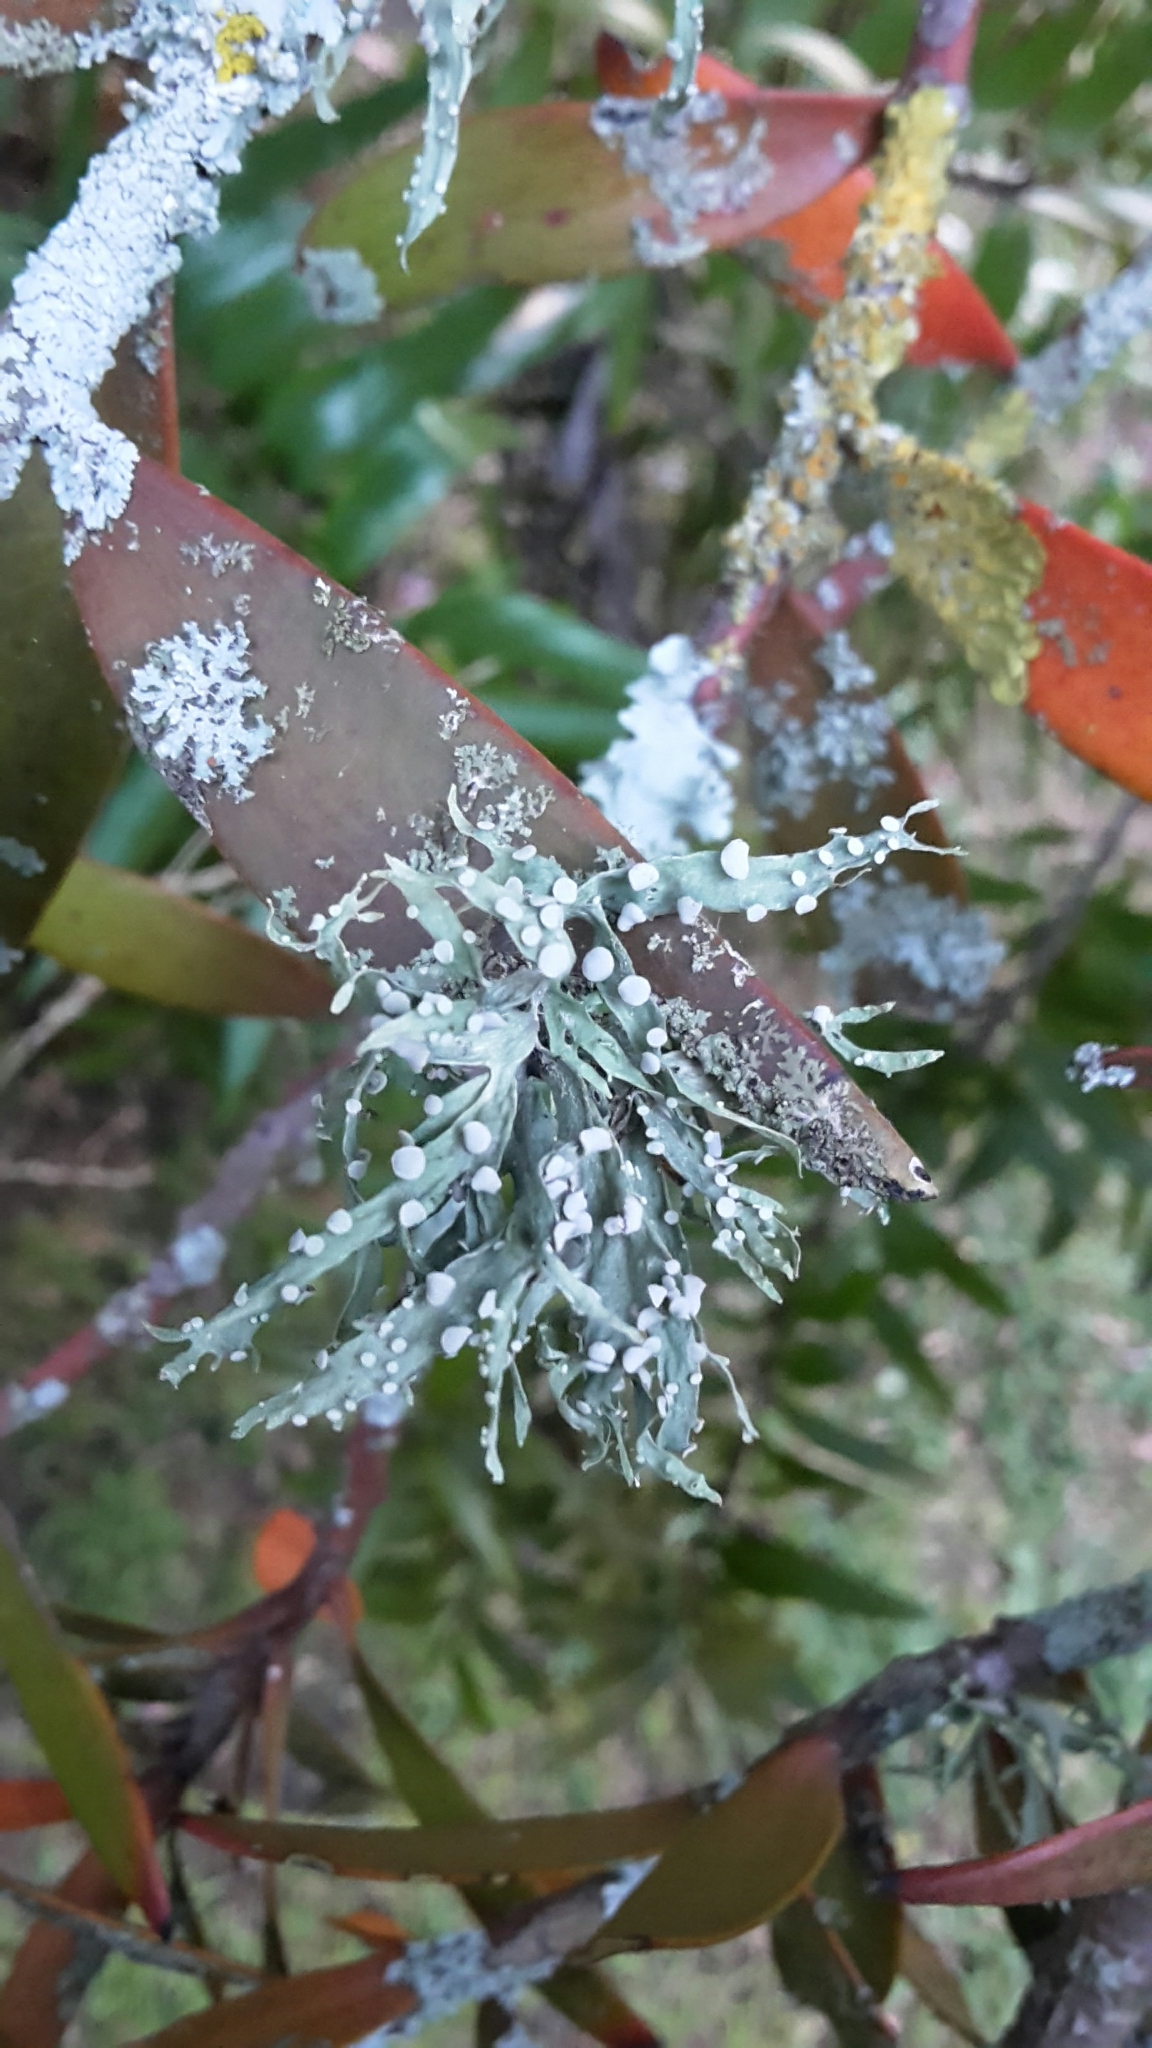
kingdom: Fungi
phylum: Ascomycota
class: Lecanoromycetes
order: Lecanorales
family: Ramalinaceae
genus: Ramalina
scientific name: Ramalina celastri
